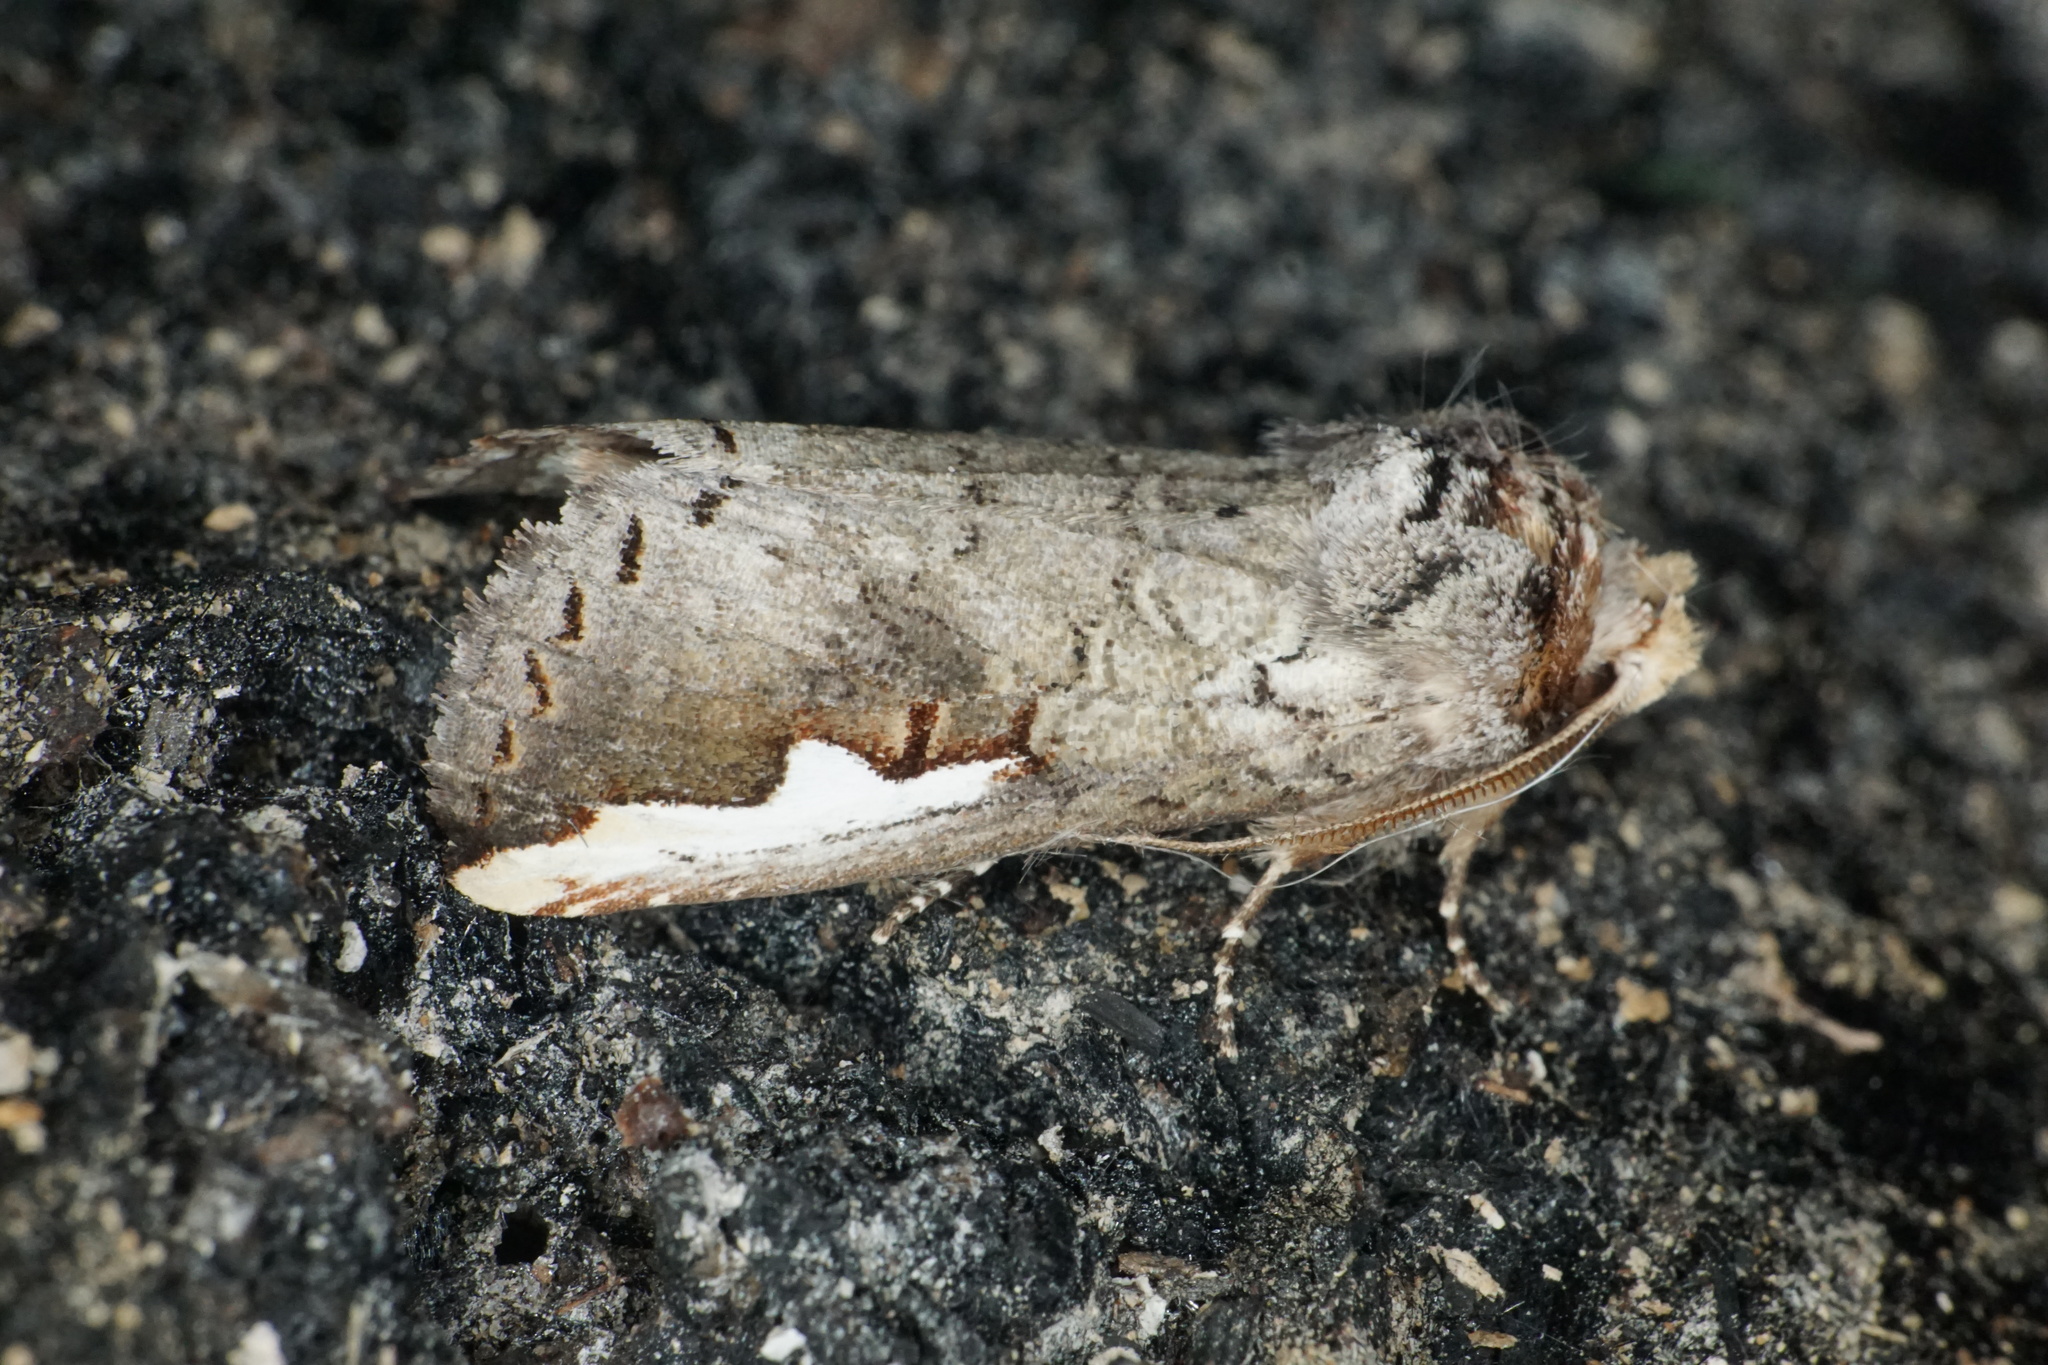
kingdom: Animalia
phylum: Arthropoda
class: Insecta
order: Lepidoptera
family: Notodontidae
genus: Symmerista
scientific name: Symmerista albifrons
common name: White-headed prominent
